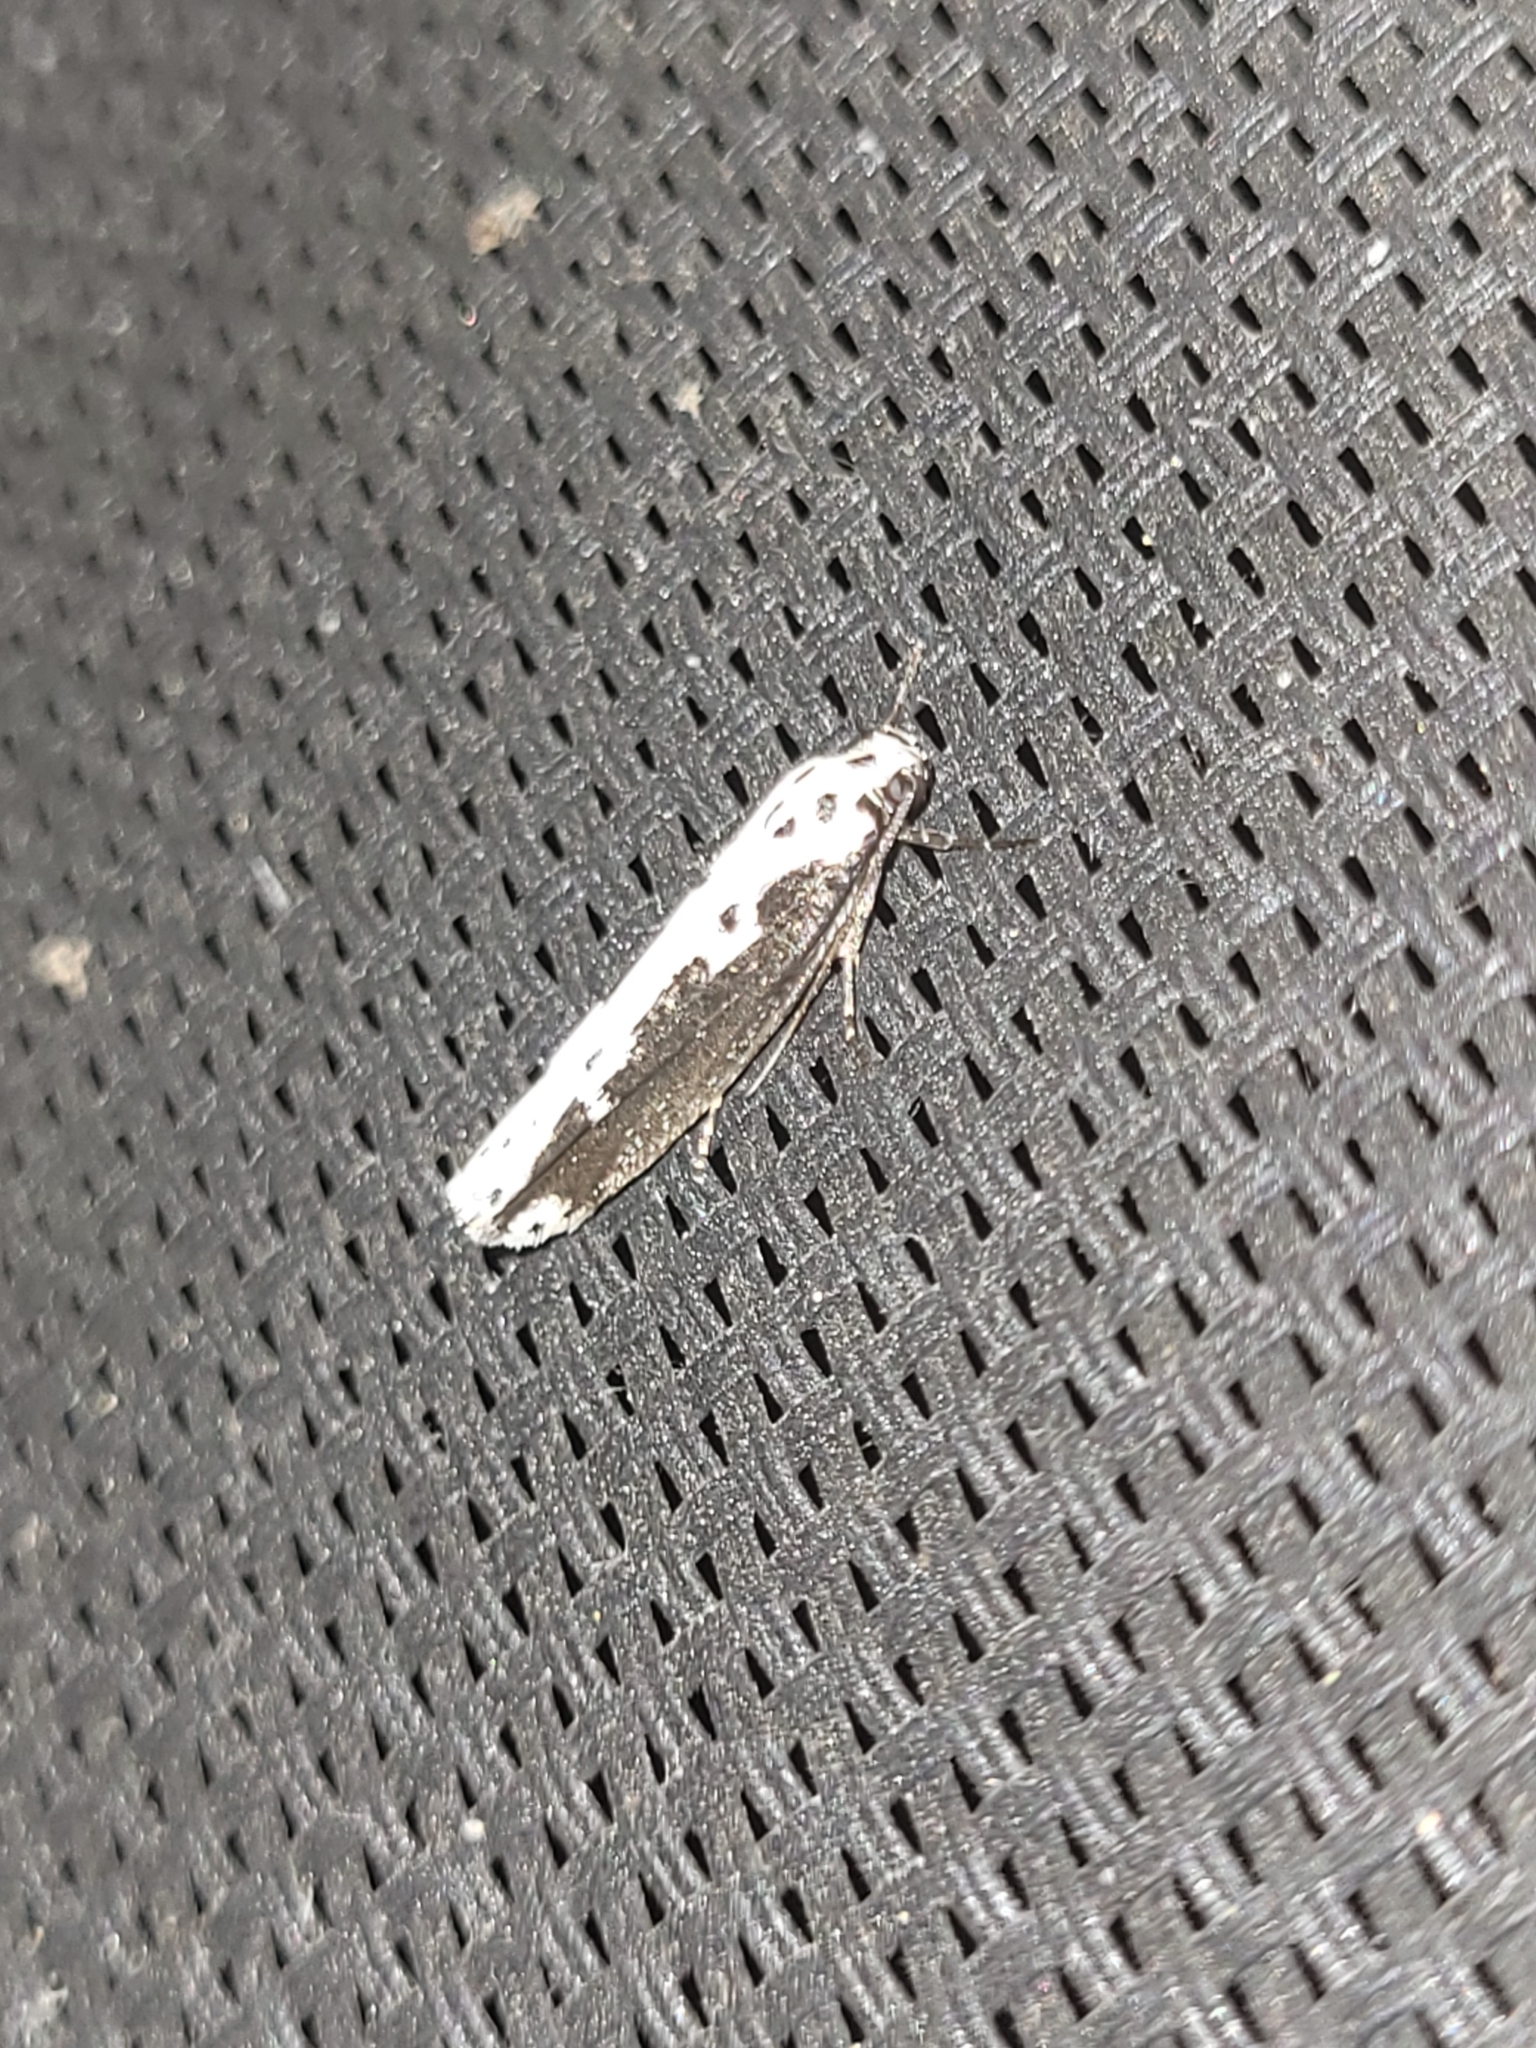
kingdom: Animalia
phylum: Arthropoda
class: Insecta
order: Lepidoptera
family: Ethmiidae
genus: Ethmia
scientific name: Ethmia semilugens
